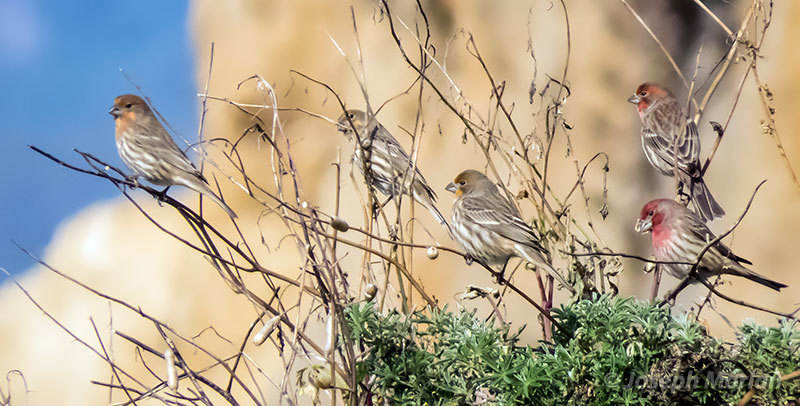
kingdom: Animalia
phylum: Chordata
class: Aves
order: Passeriformes
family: Fringillidae
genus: Haemorhous
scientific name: Haemorhous mexicanus
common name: House finch
